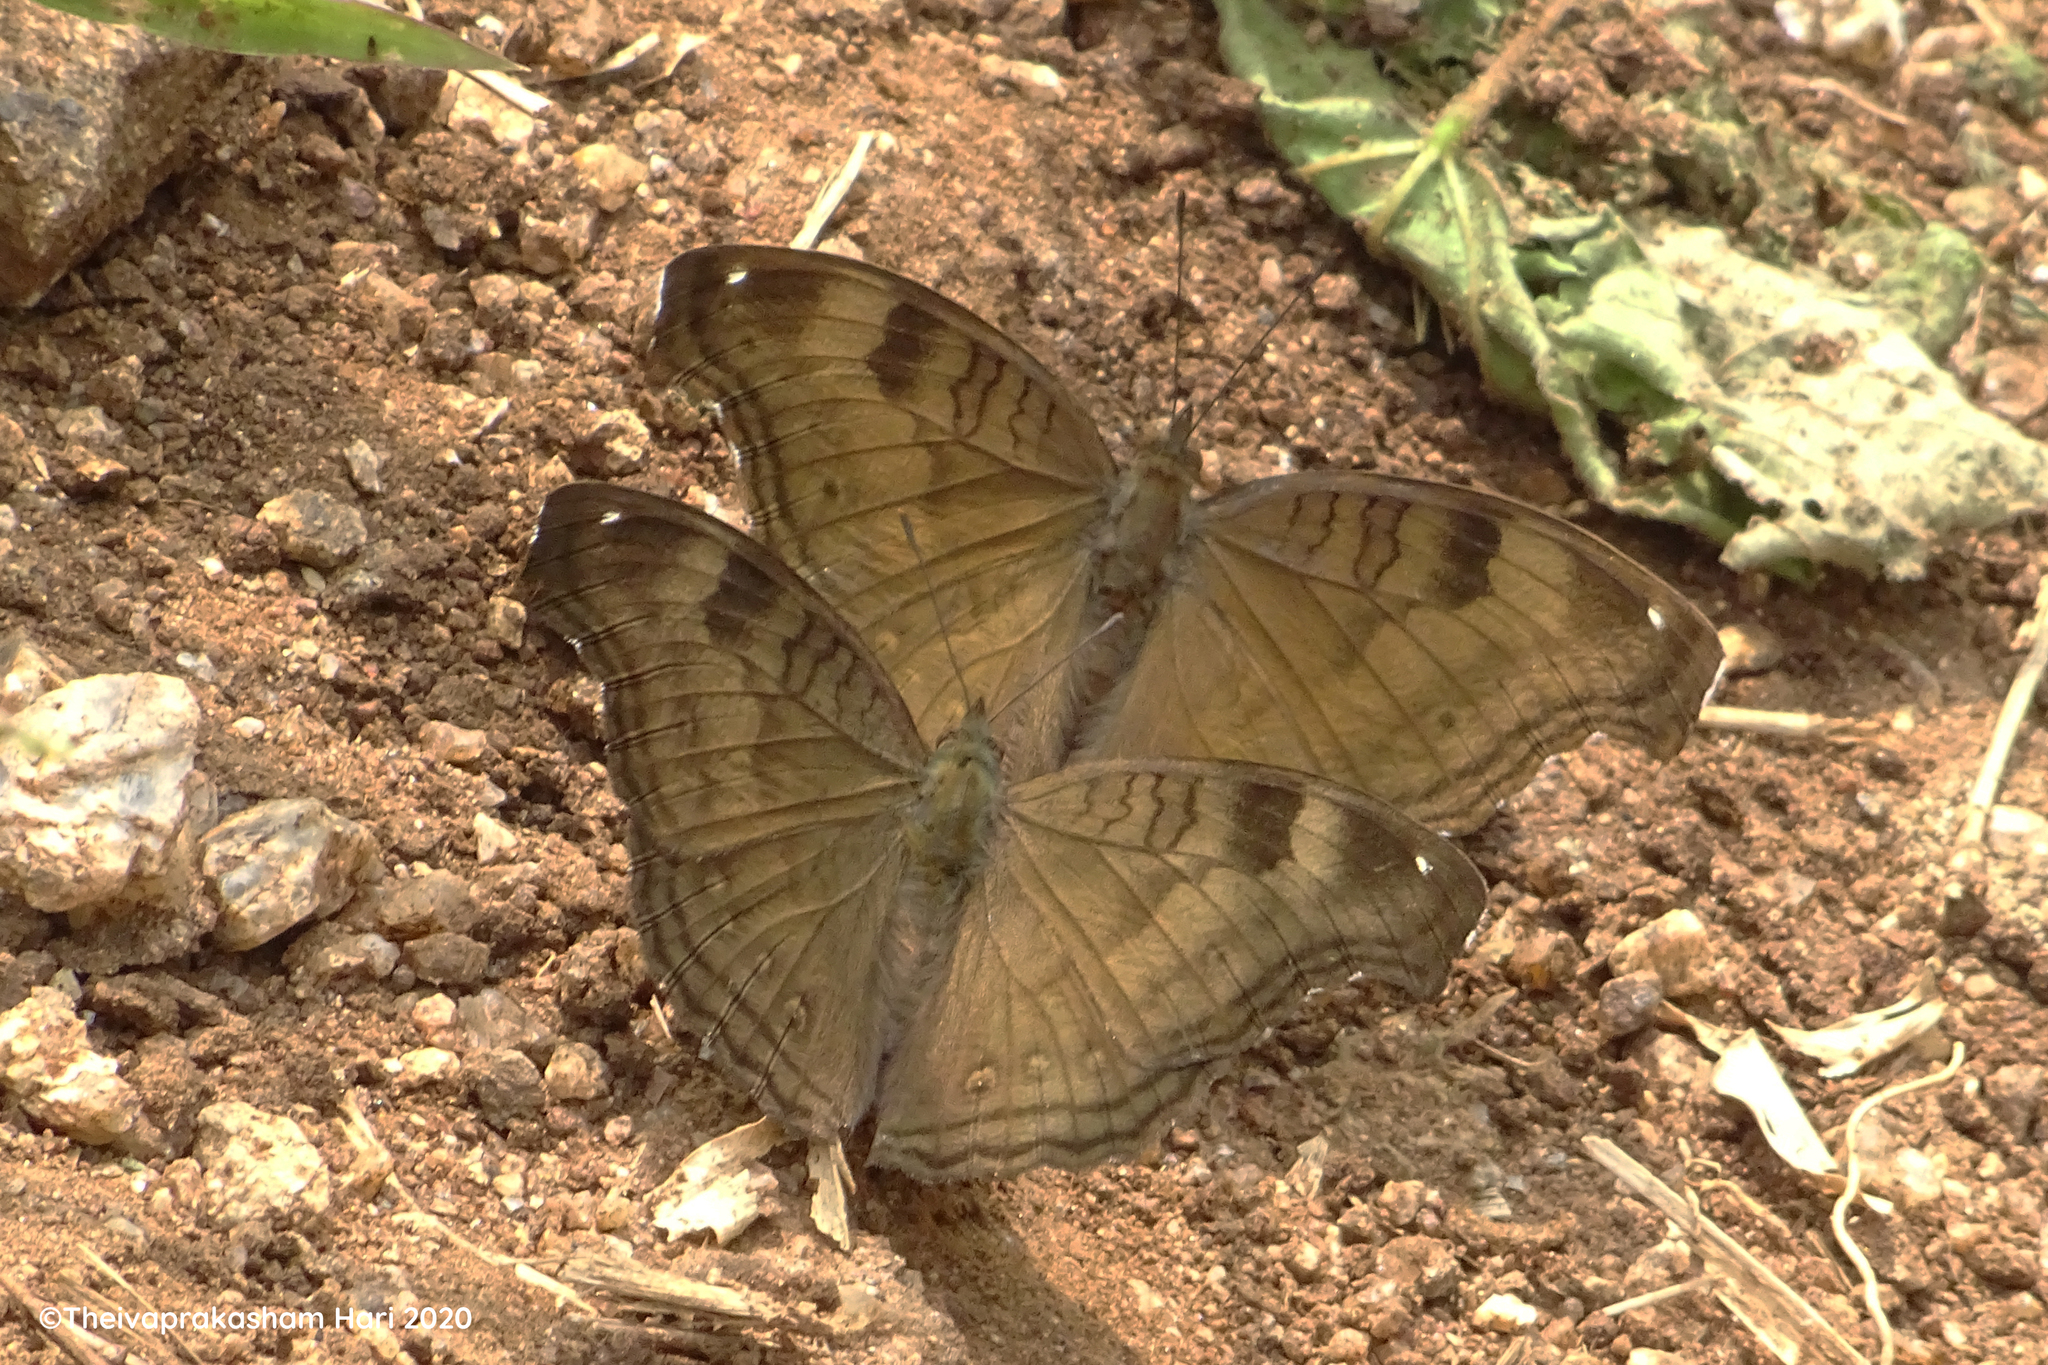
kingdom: Animalia
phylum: Arthropoda
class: Insecta
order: Lepidoptera
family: Nymphalidae
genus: Junonia
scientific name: Junonia iphita
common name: Chocolate pansy
